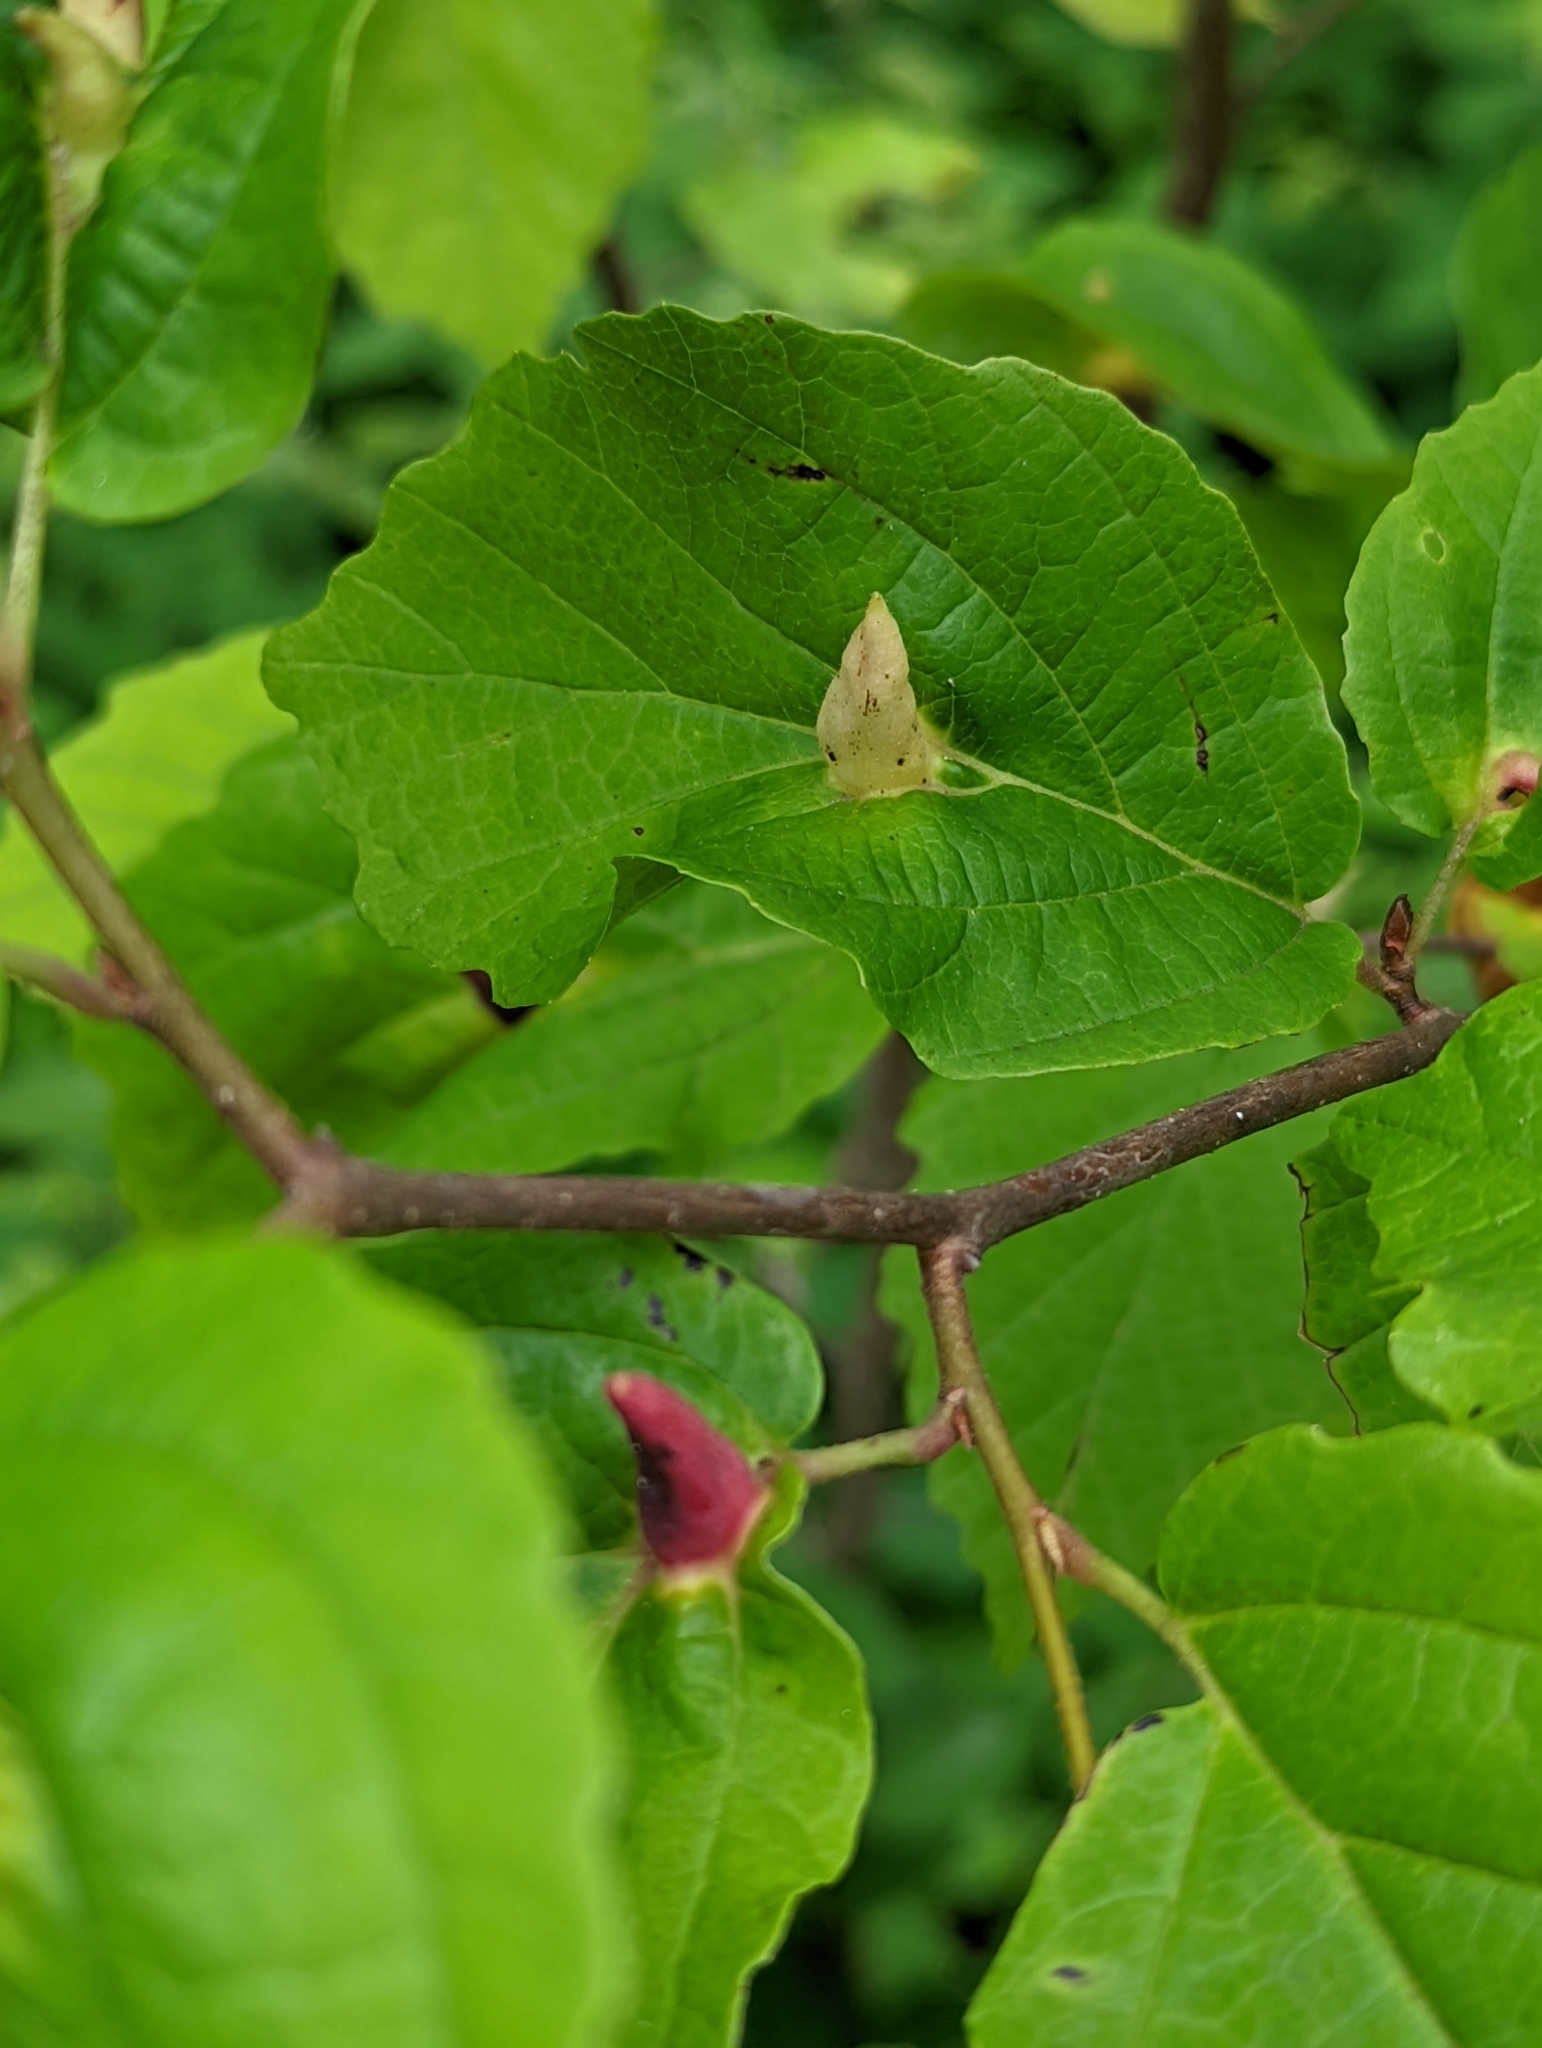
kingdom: Animalia
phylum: Arthropoda
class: Insecta
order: Hemiptera
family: Aphididae
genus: Hormaphis
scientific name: Hormaphis hamamelidis
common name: Witch-hazel cone gall aphid
